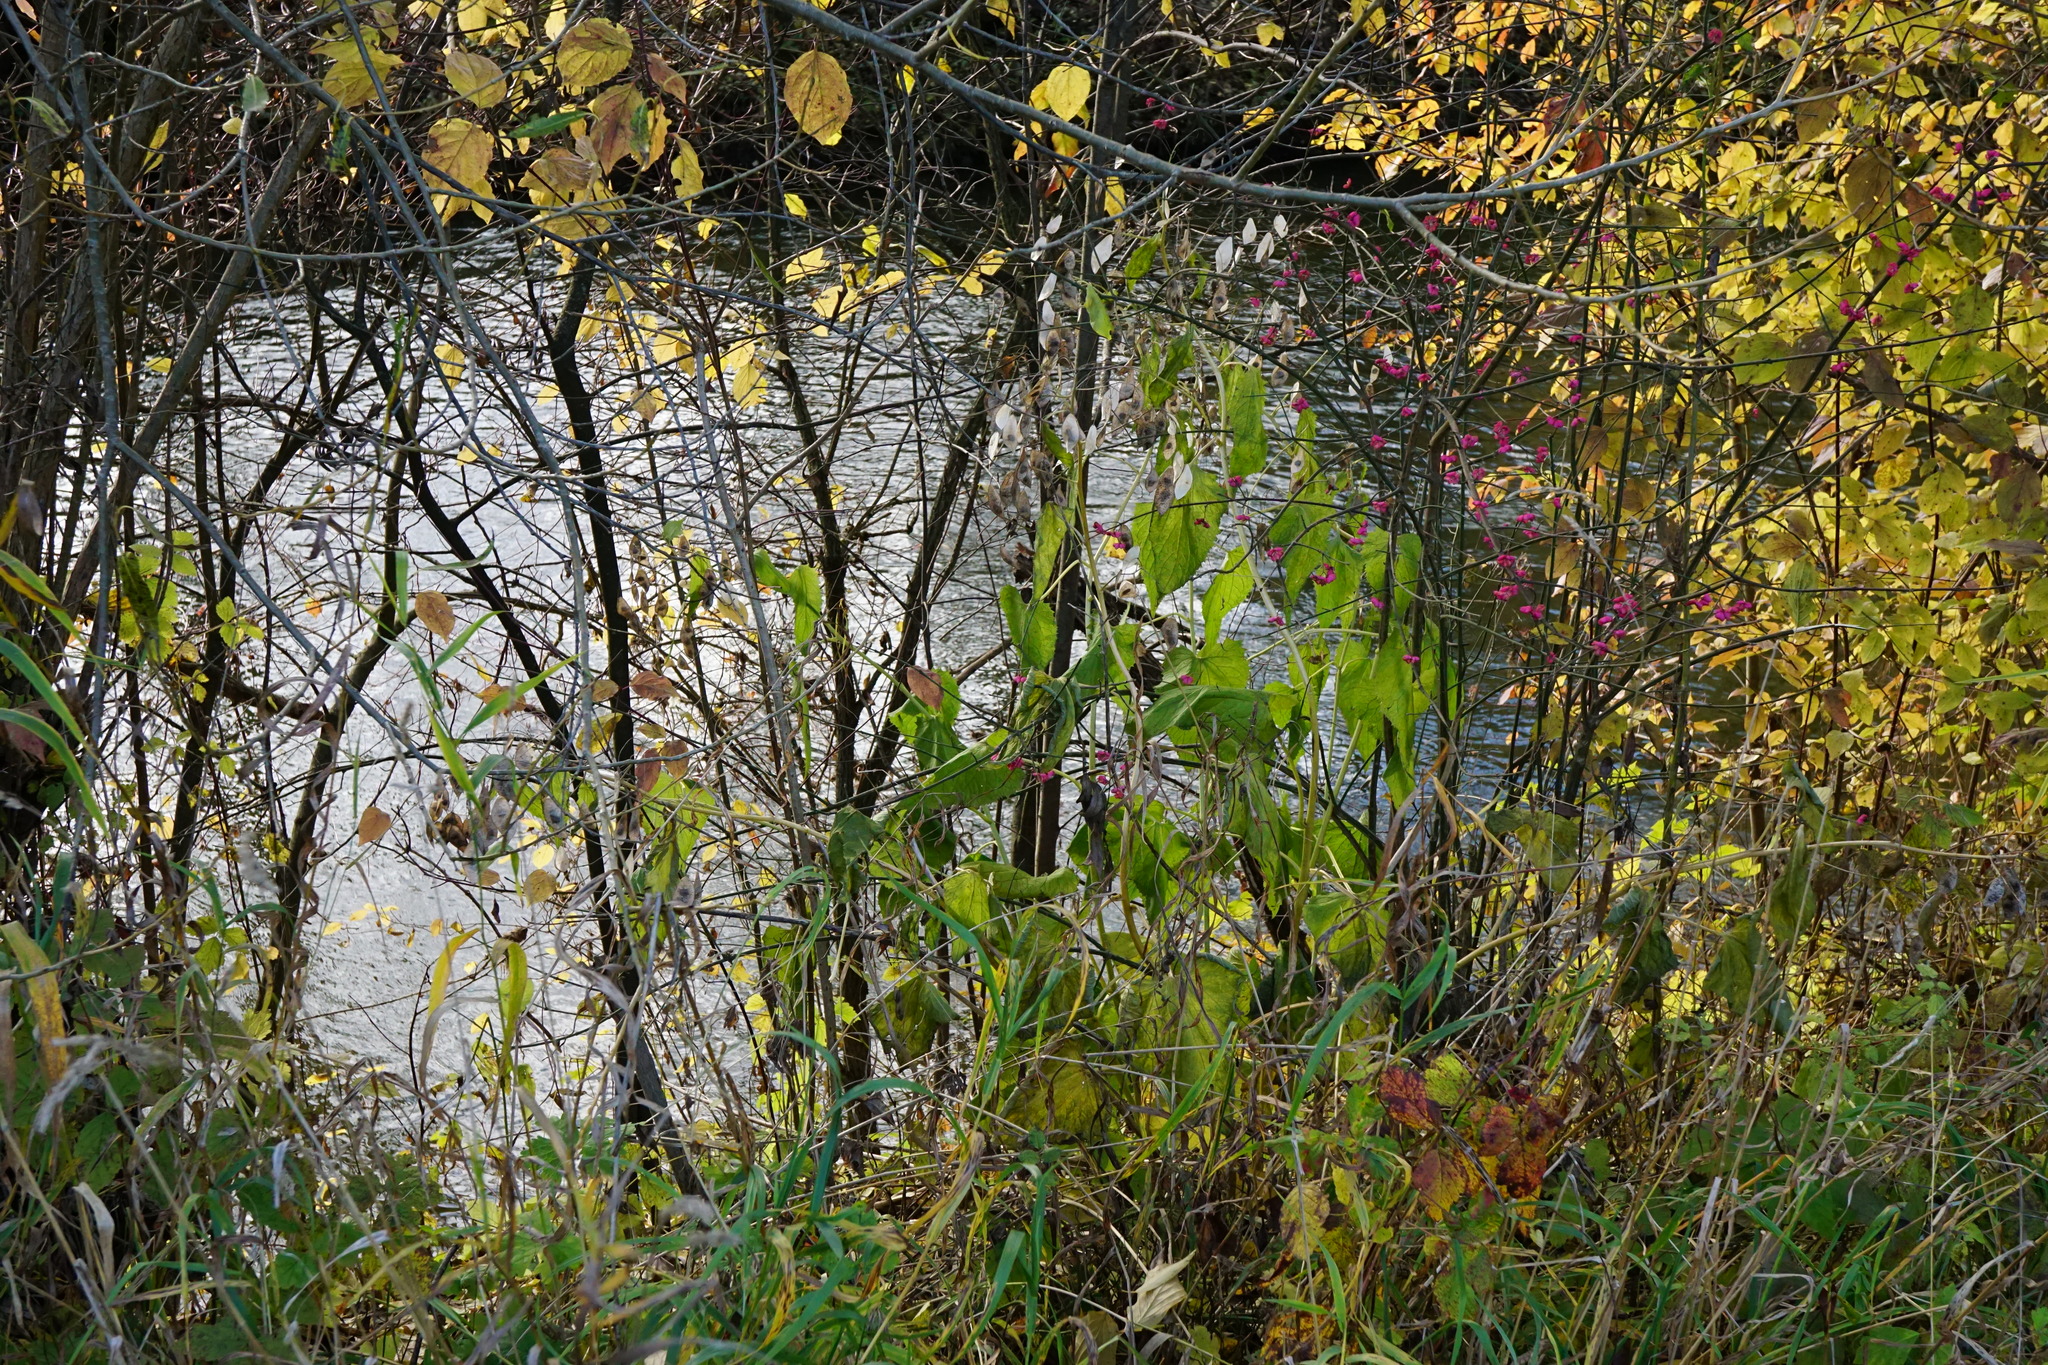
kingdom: Plantae
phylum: Tracheophyta
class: Magnoliopsida
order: Brassicales
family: Brassicaceae
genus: Lunaria
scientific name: Lunaria rediviva
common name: Perennial honesty
